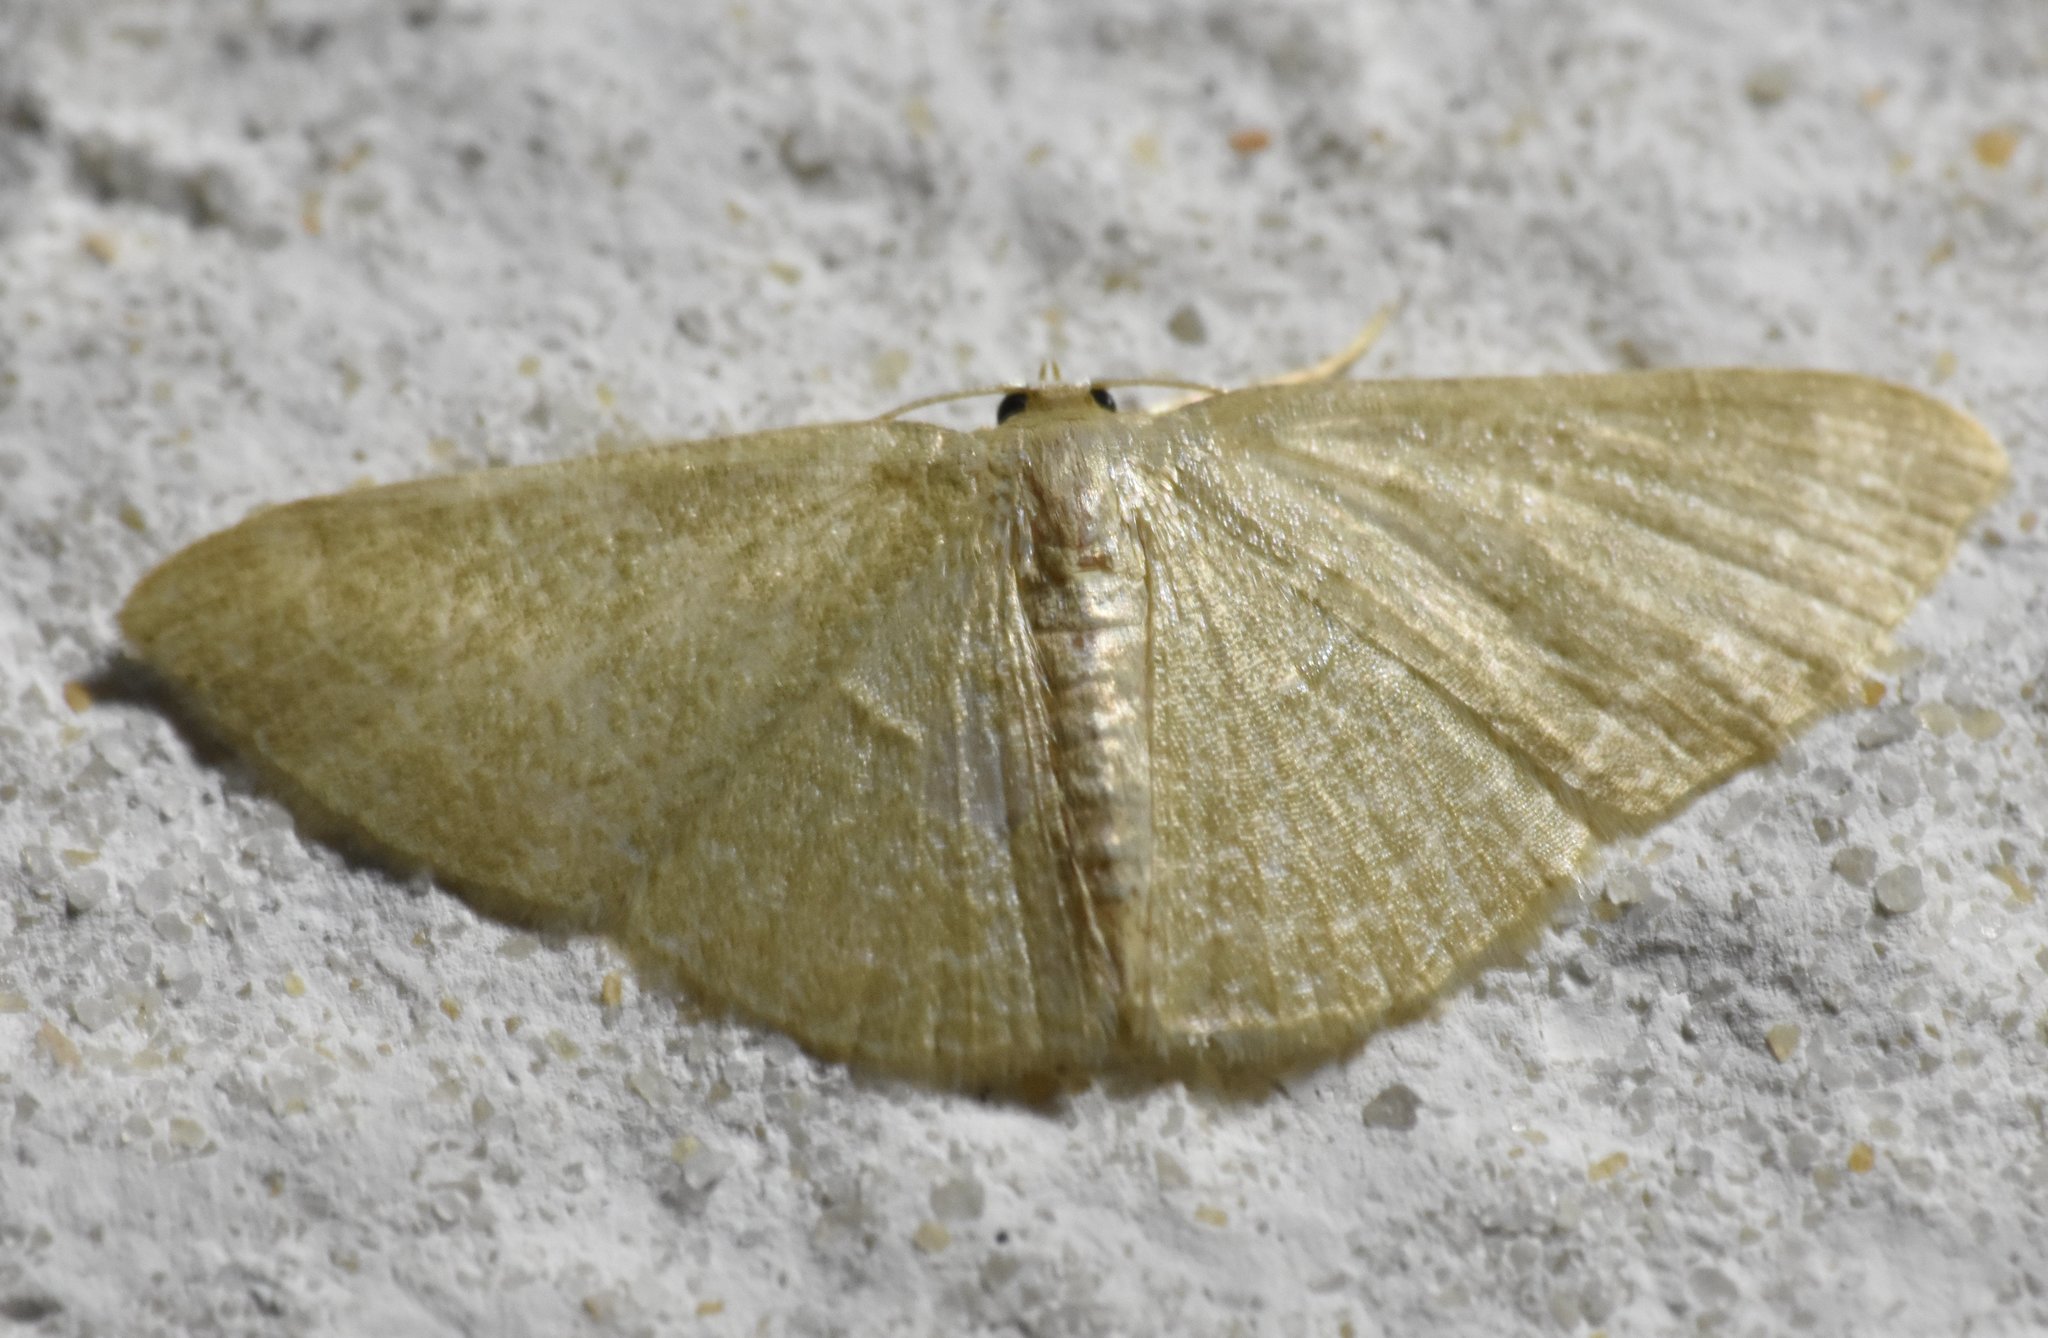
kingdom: Animalia
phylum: Arthropoda
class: Insecta
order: Lepidoptera
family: Geometridae
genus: Pleuroprucha
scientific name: Pleuroprucha insulsaria
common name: Common tan wave
